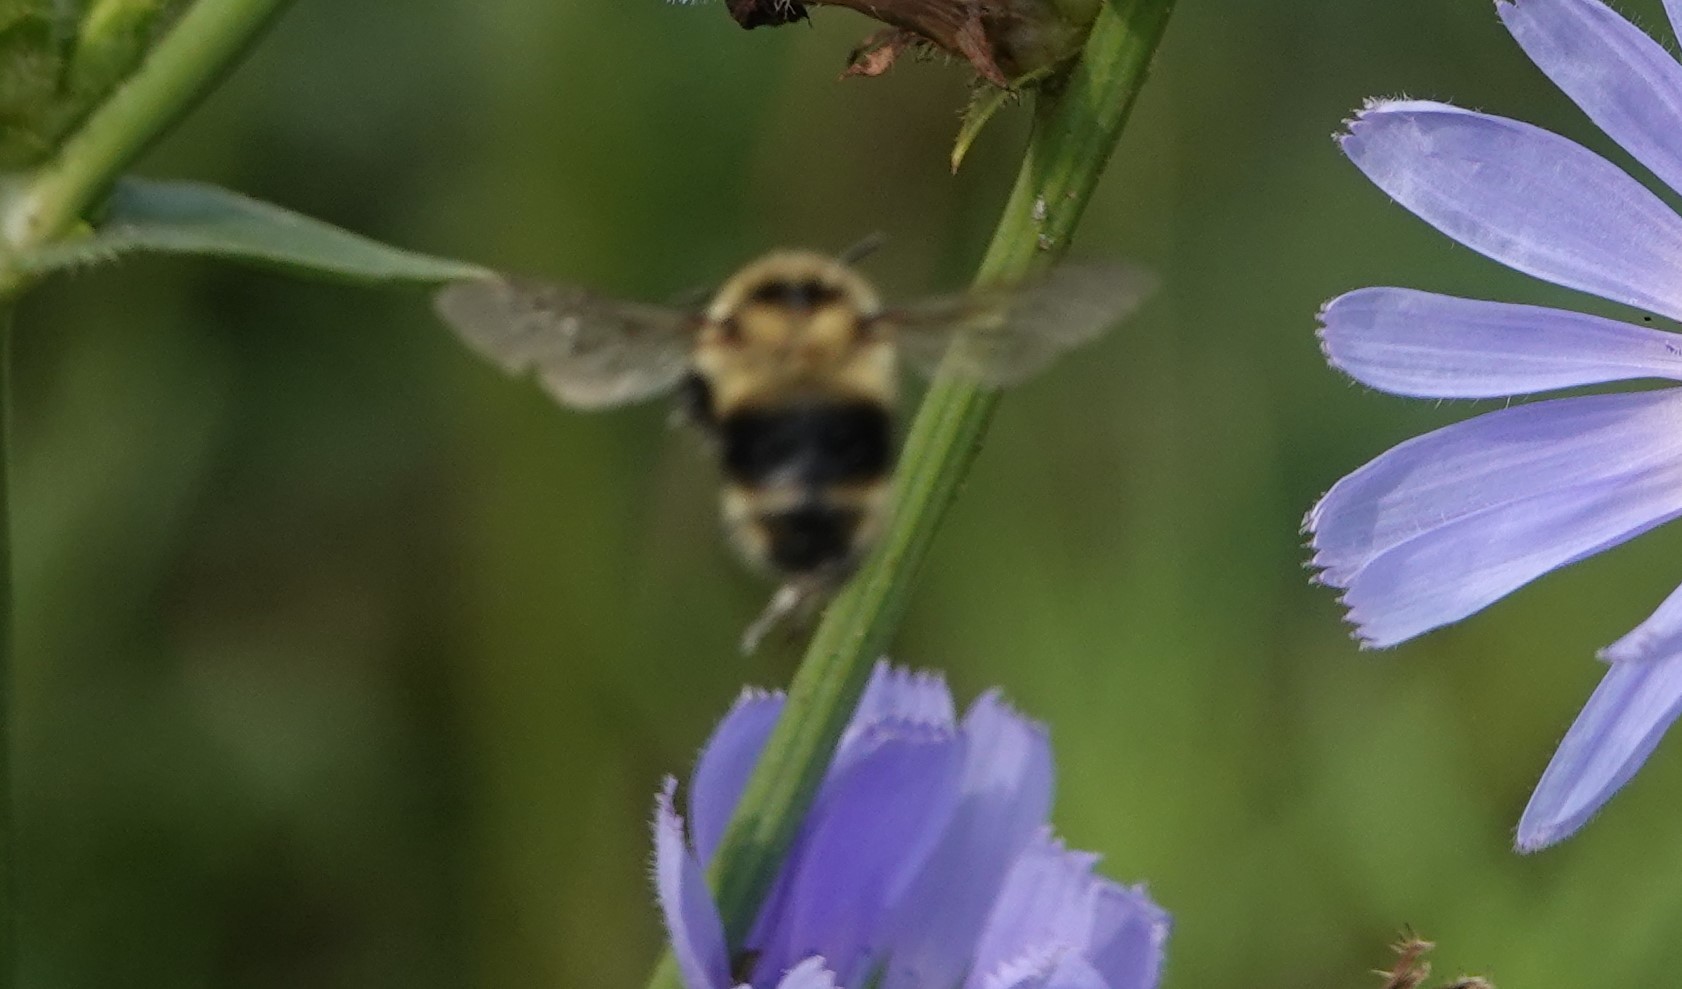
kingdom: Animalia
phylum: Arthropoda
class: Insecta
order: Hymenoptera
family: Apidae
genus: Bombus
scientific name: Bombus rufocinctus
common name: Red-belted bumble bee
